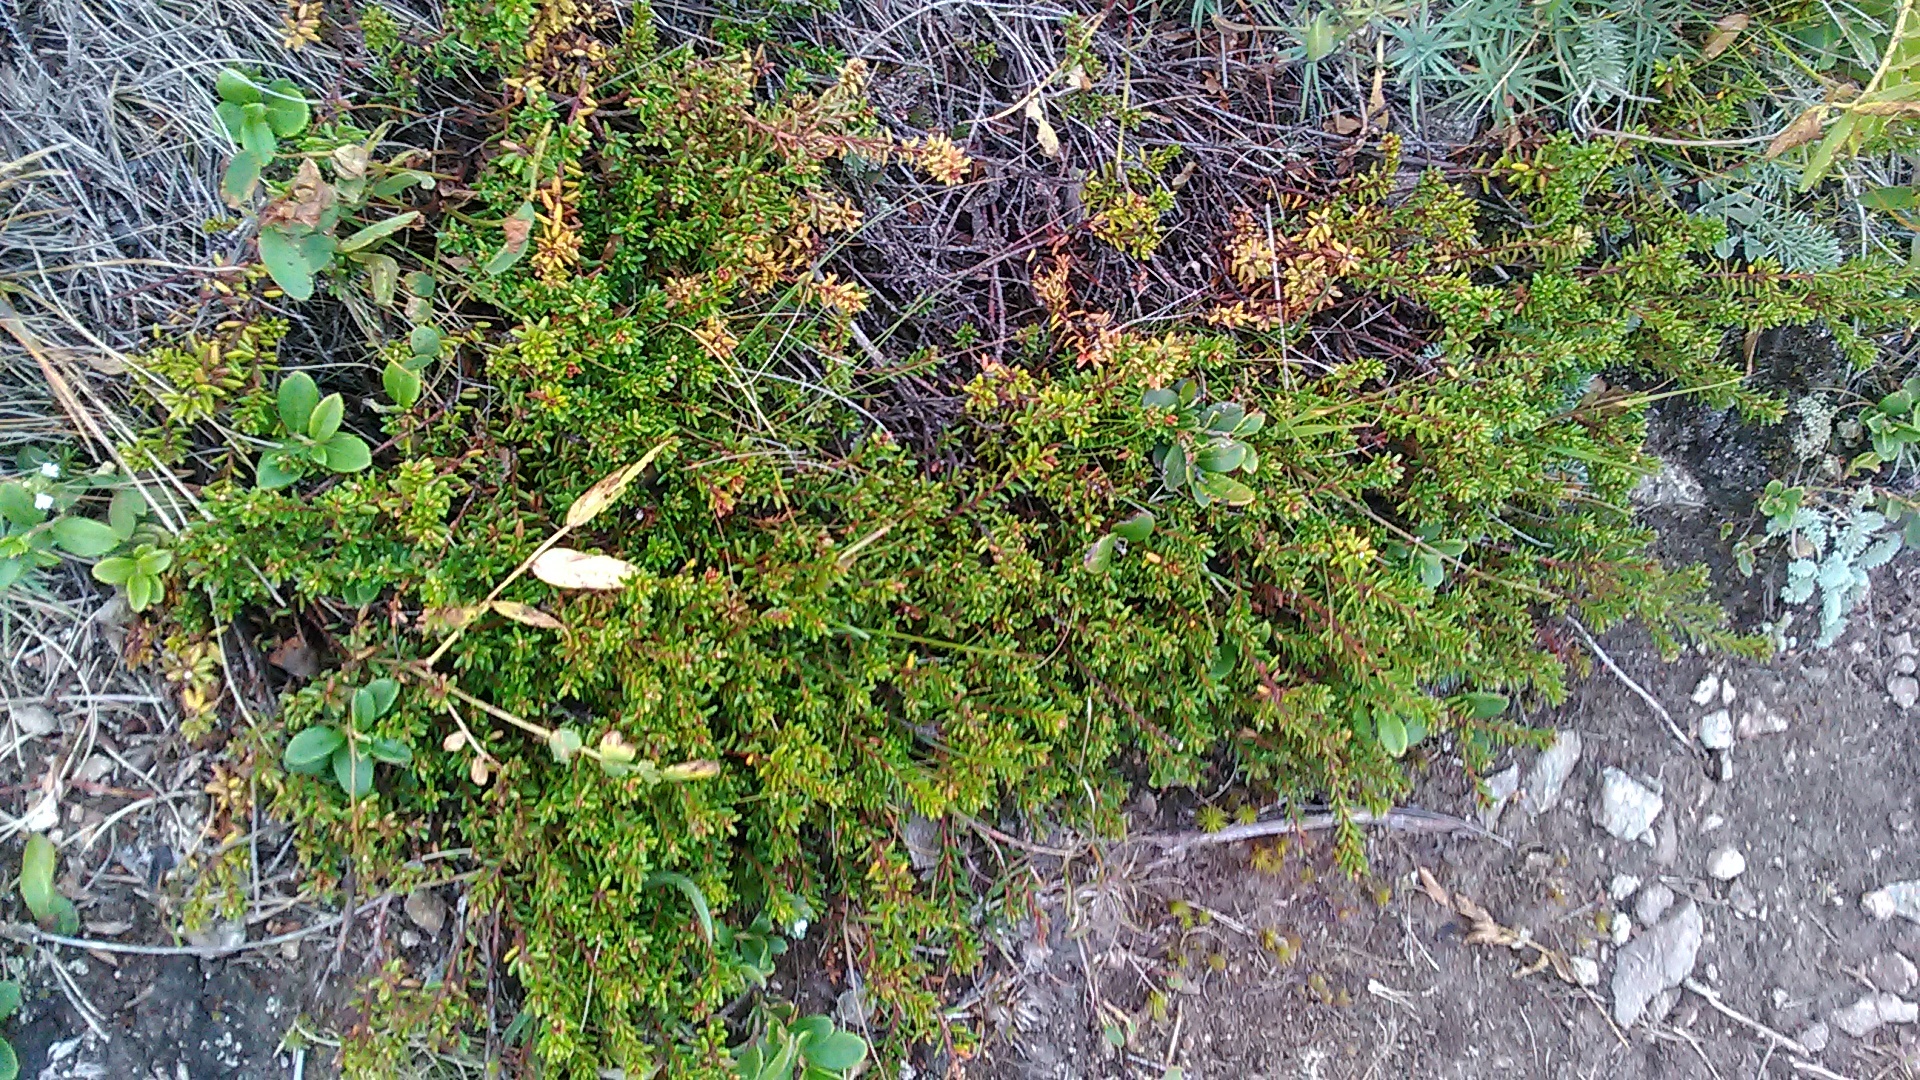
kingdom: Plantae
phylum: Tracheophyta
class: Magnoliopsida
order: Ericales
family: Ericaceae
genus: Empetrum
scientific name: Empetrum nigrum
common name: Black crowberry
